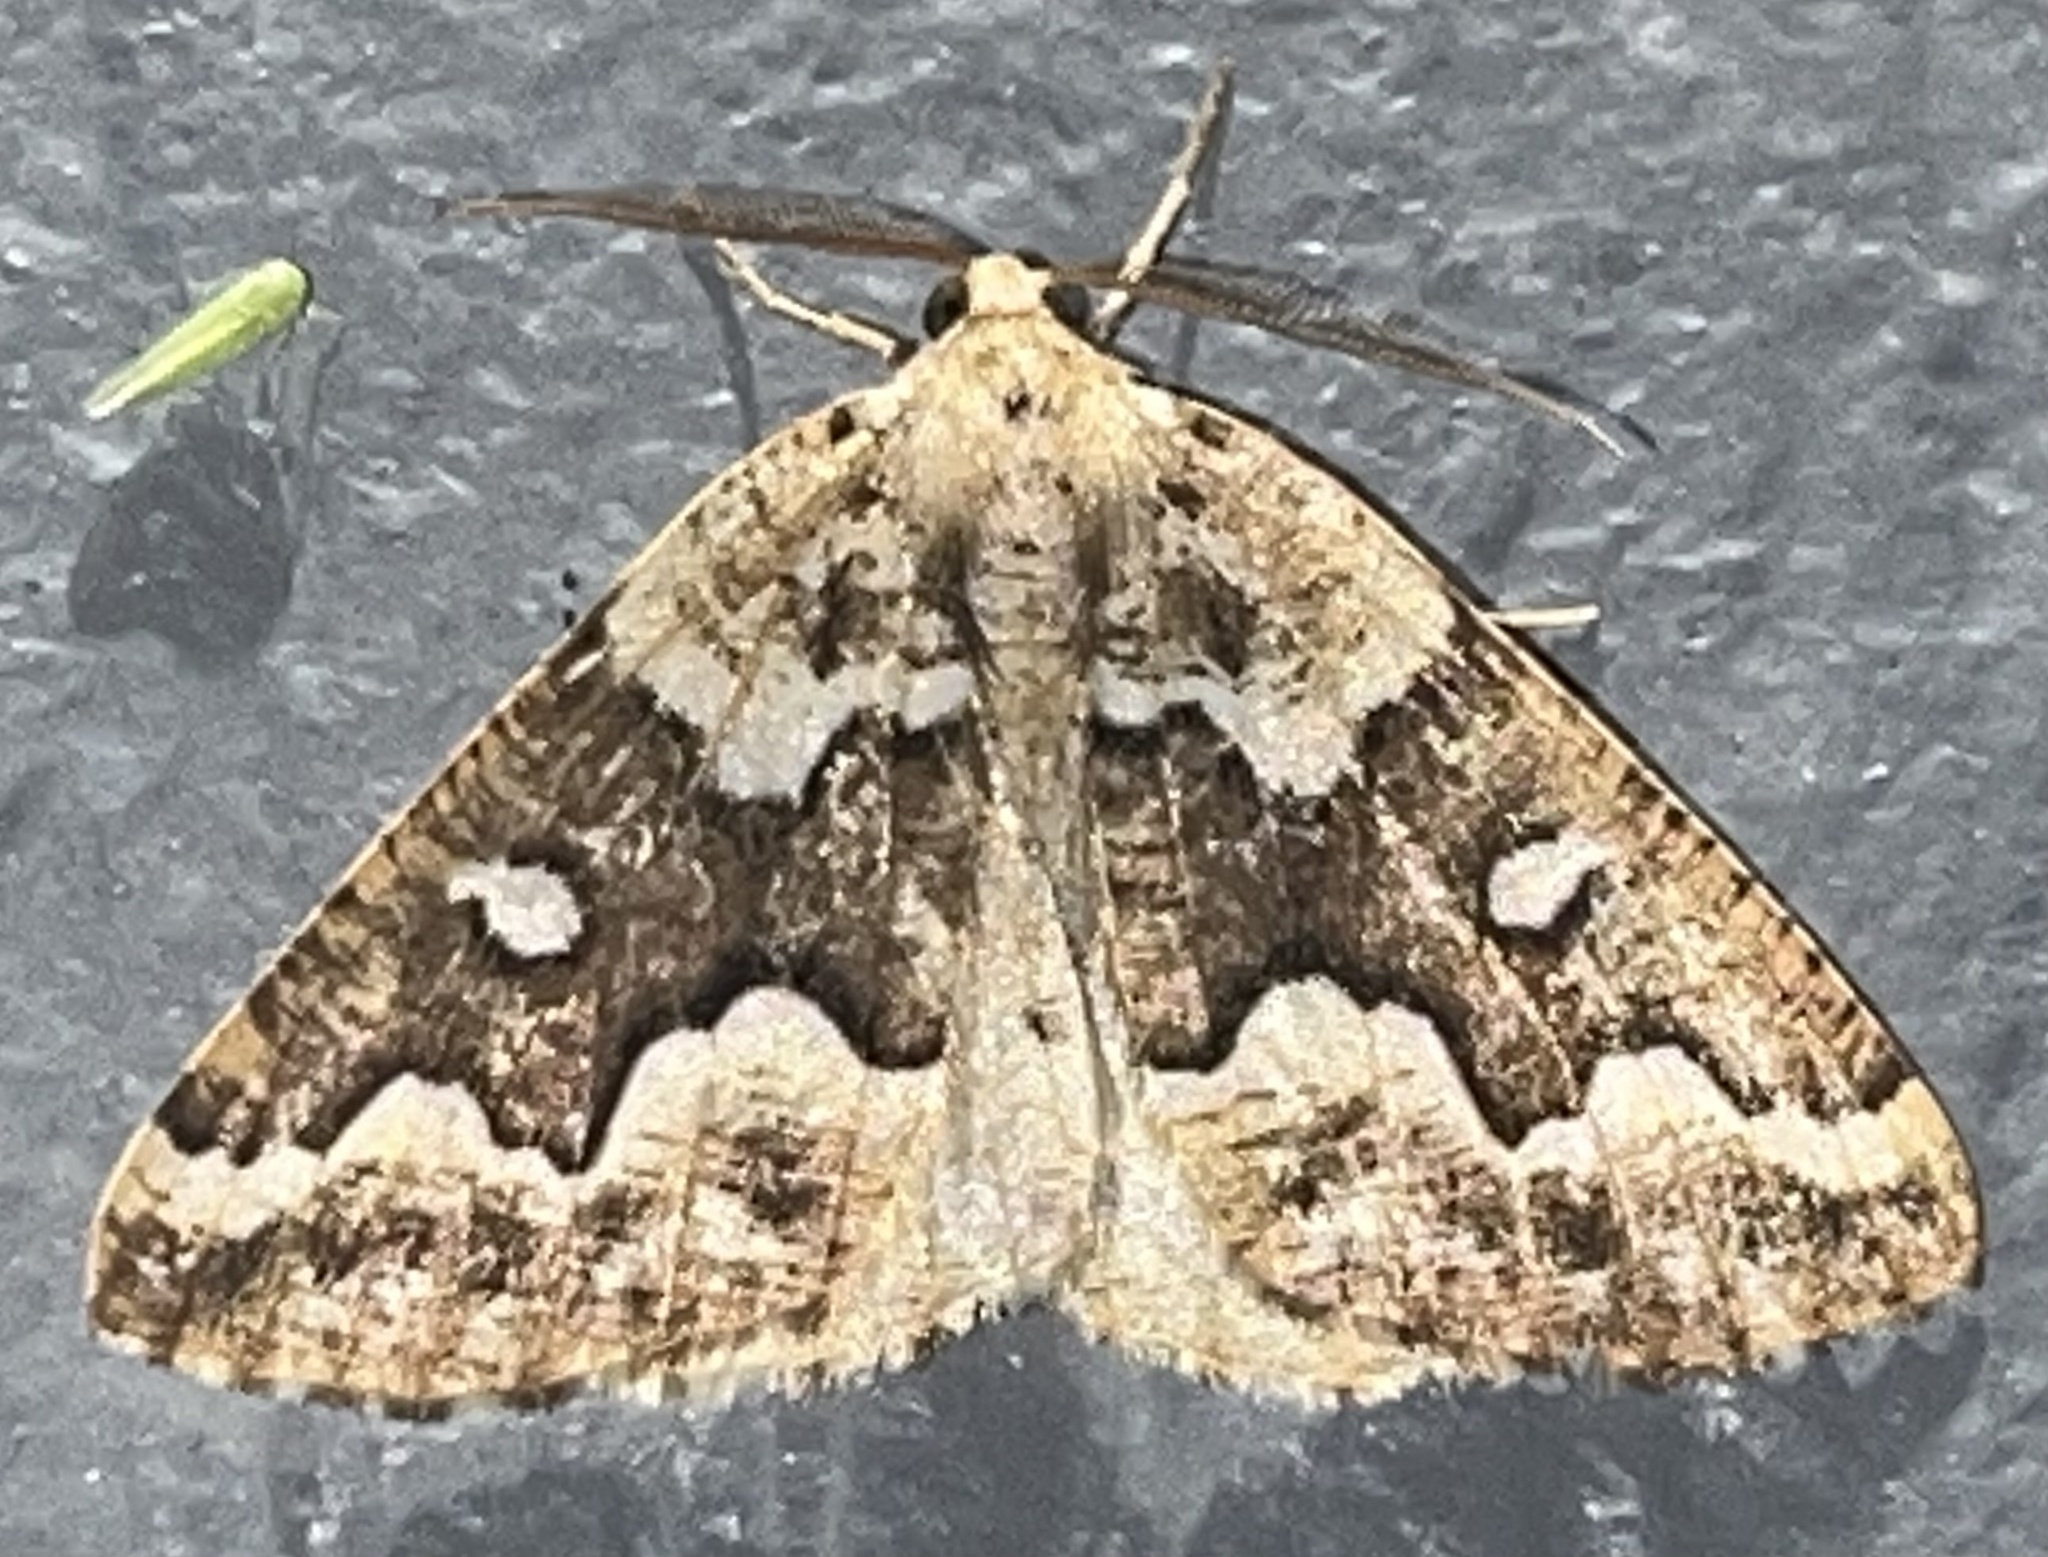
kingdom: Animalia
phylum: Arthropoda
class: Insecta
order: Lepidoptera
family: Geometridae
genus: Caripeta
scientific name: Caripeta divisata
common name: Gray spruce looper
